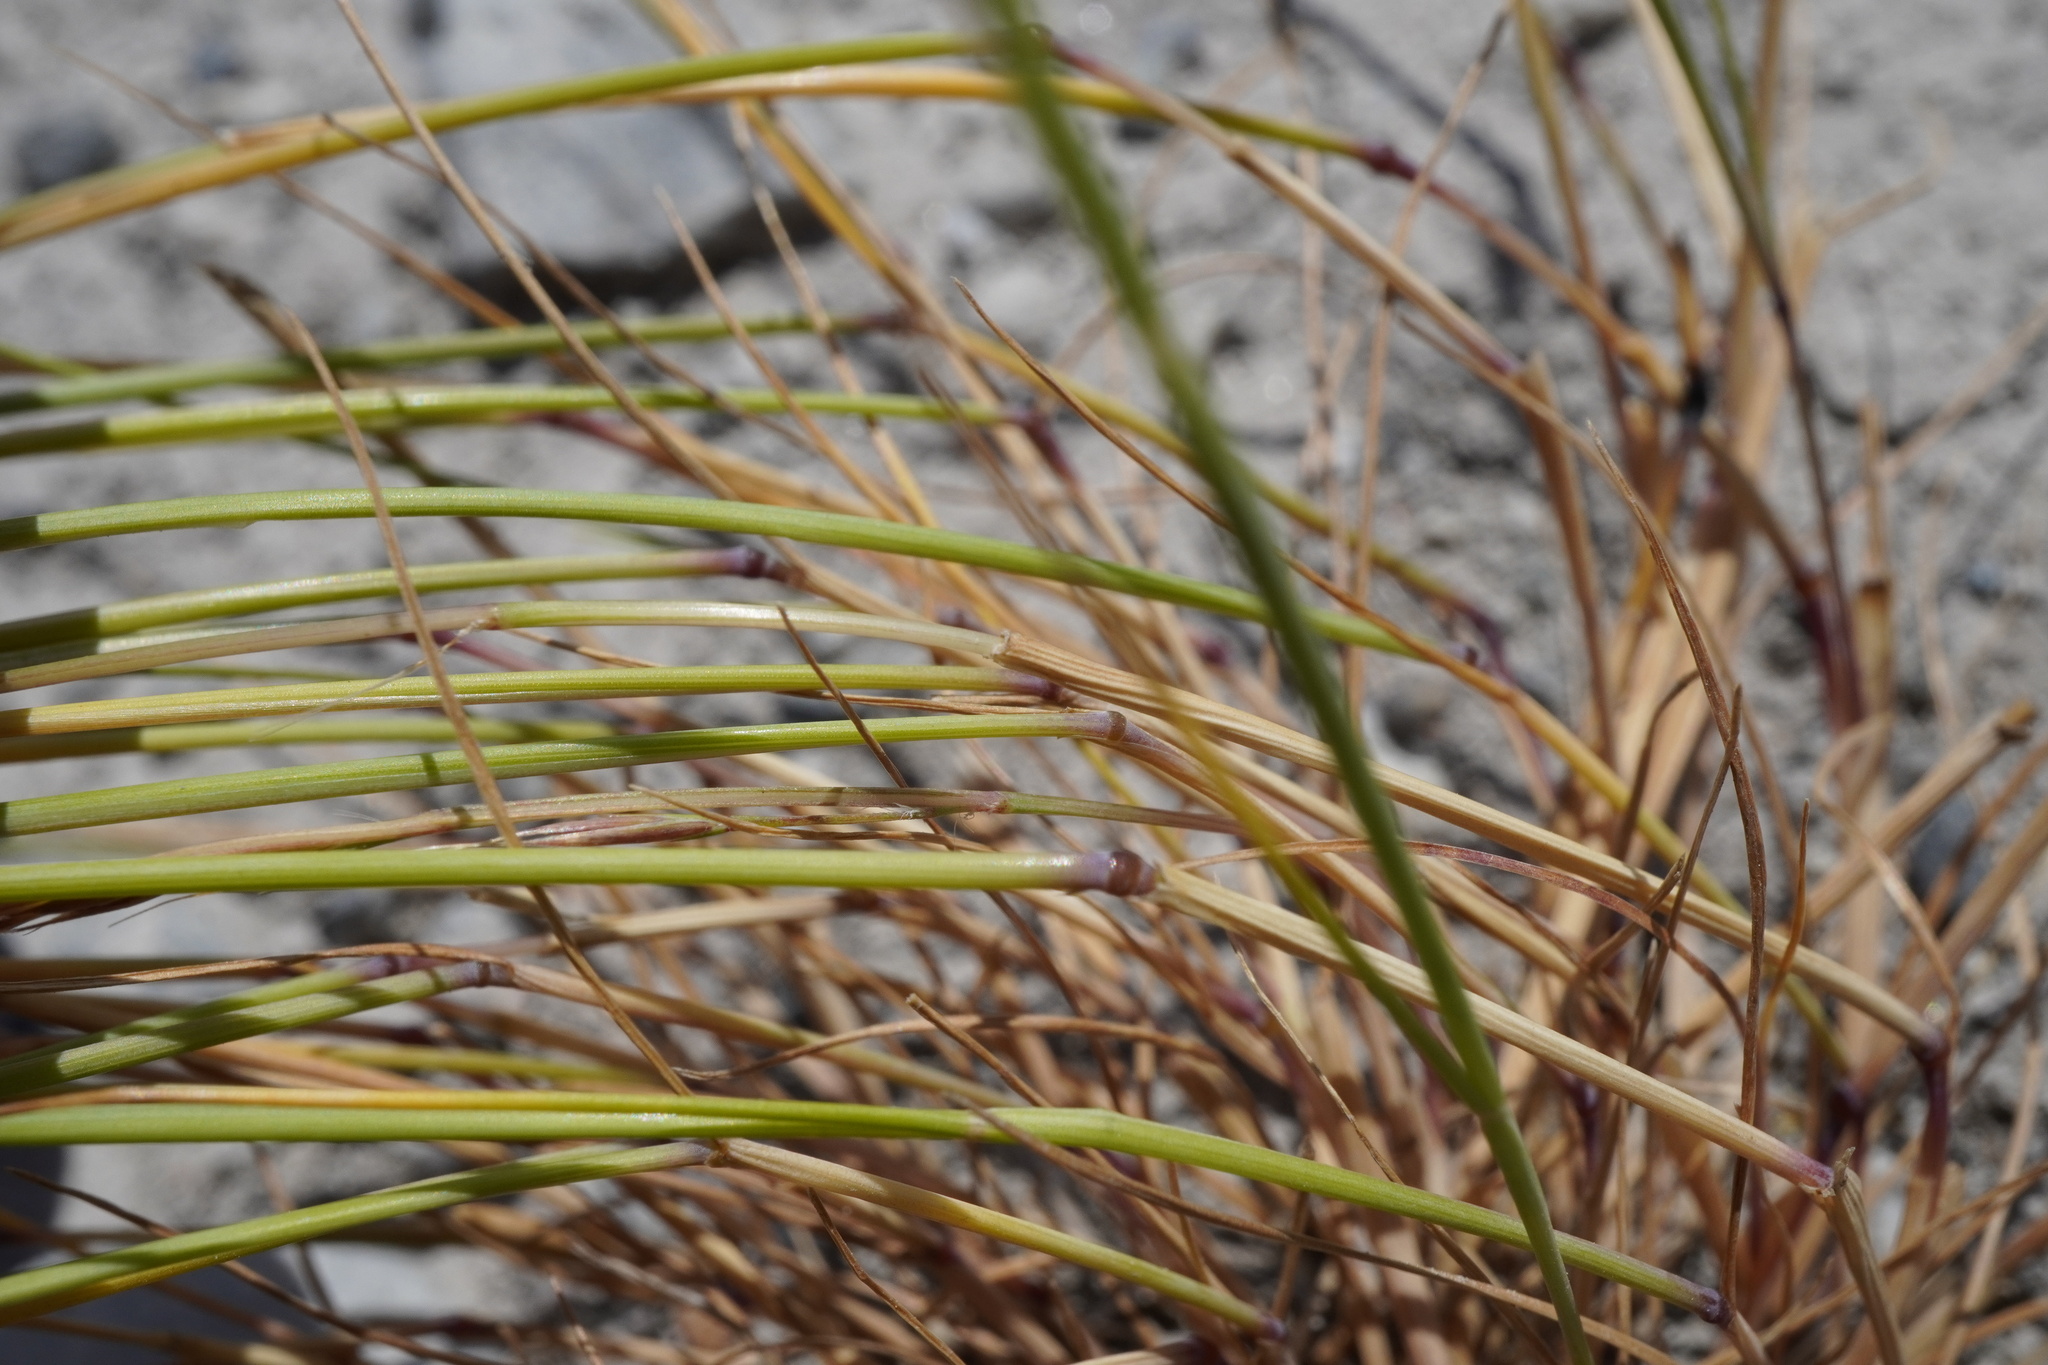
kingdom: Plantae
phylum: Tracheophyta
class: Liliopsida
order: Poales
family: Poaceae
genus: Festuca
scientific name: Festuca myuros
